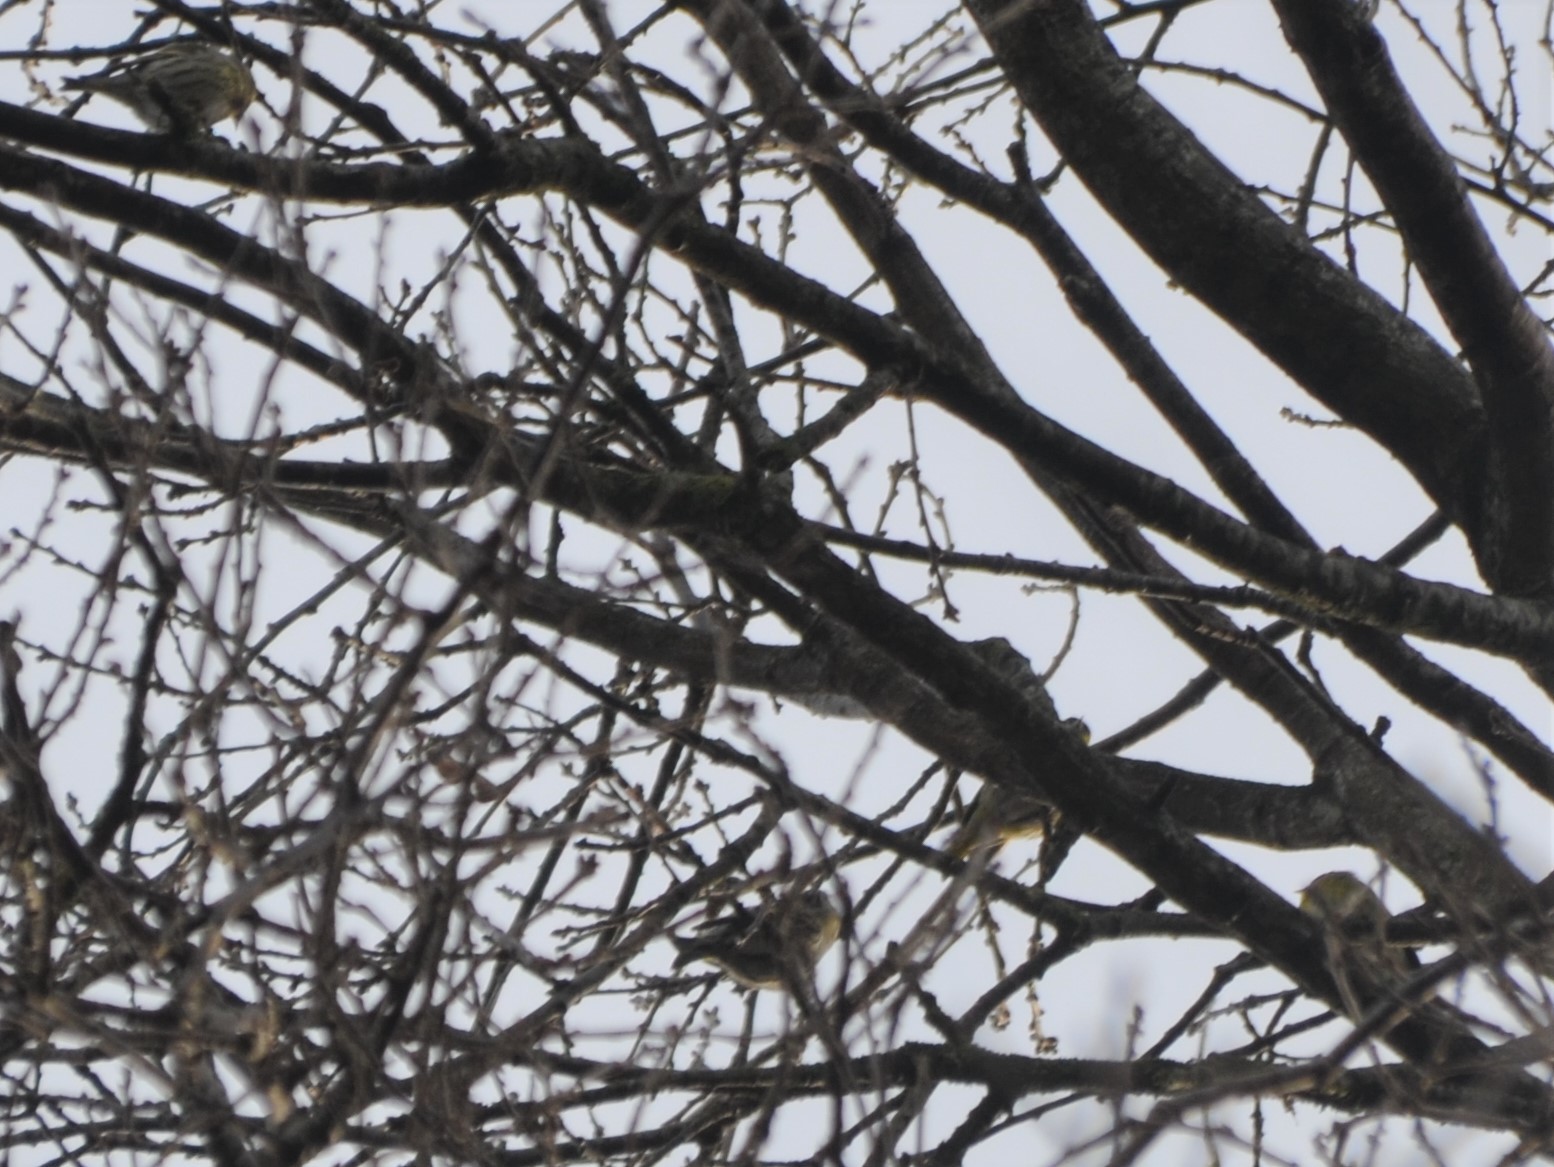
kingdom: Animalia
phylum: Chordata
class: Aves
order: Passeriformes
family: Fringillidae
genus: Spinus
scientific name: Spinus spinus
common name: Eurasian siskin
